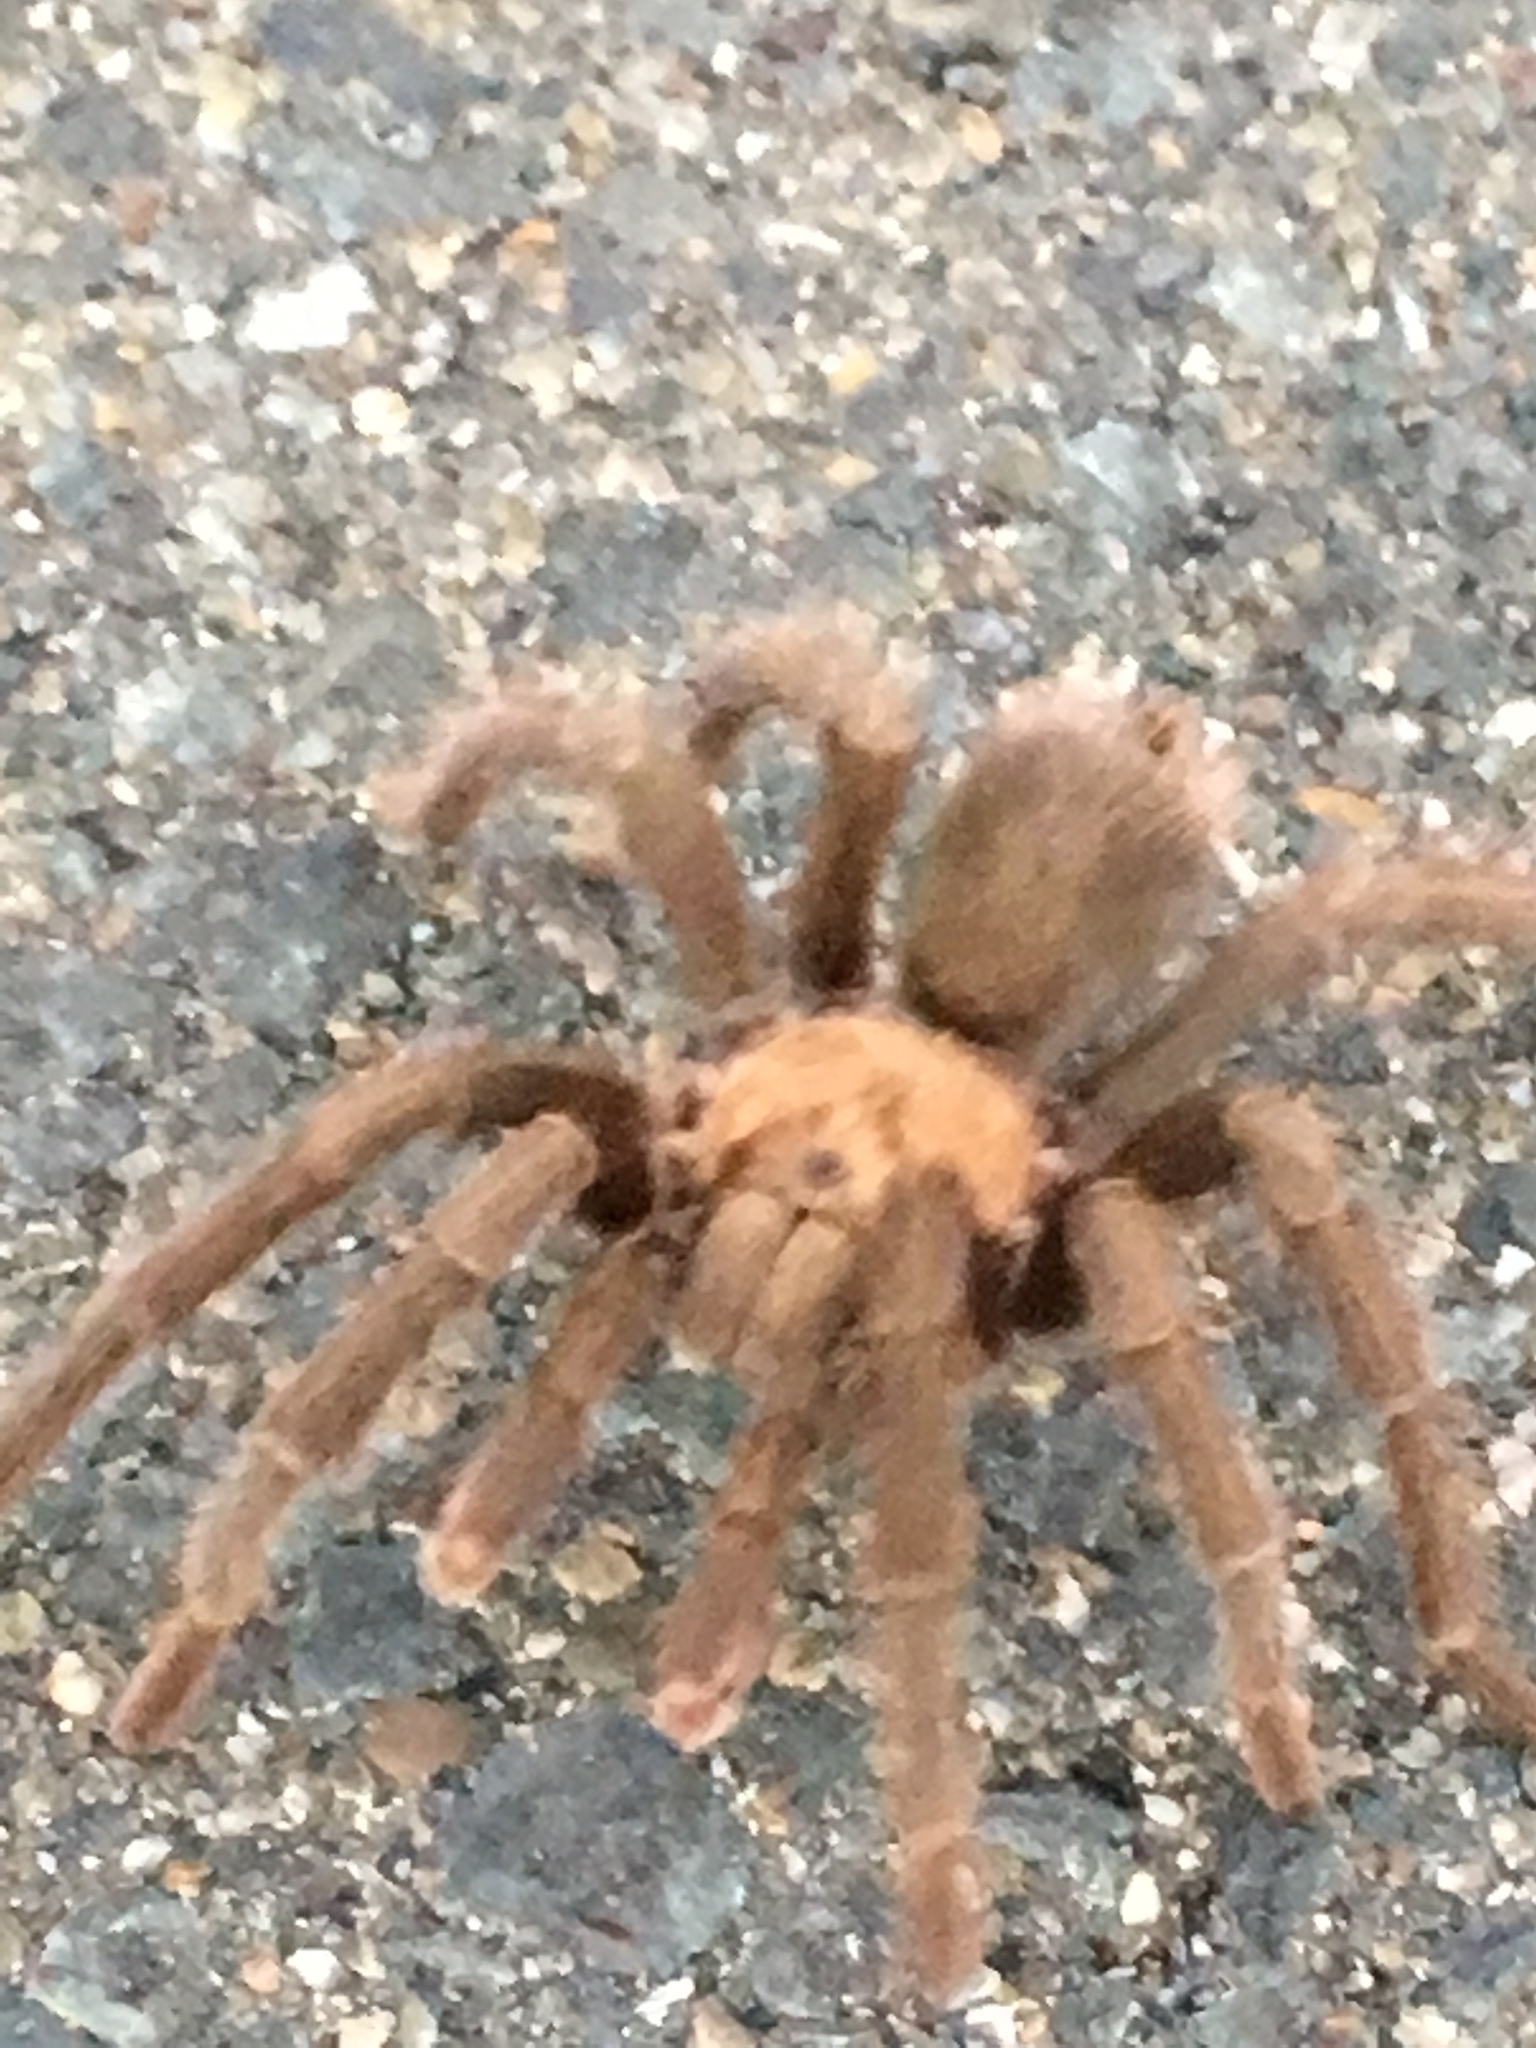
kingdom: Animalia
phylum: Arthropoda
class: Arachnida
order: Araneae
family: Theraphosidae
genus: Aphonopelma
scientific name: Aphonopelma iodius
